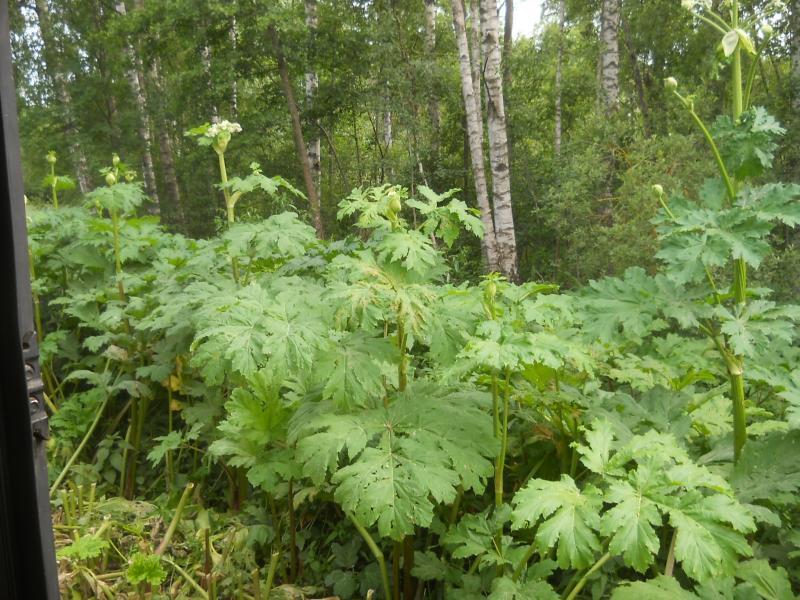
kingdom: Plantae
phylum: Tracheophyta
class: Magnoliopsida
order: Apiales
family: Apiaceae
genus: Heracleum
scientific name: Heracleum sosnowskyi
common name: Sosnowsky's hogweed
